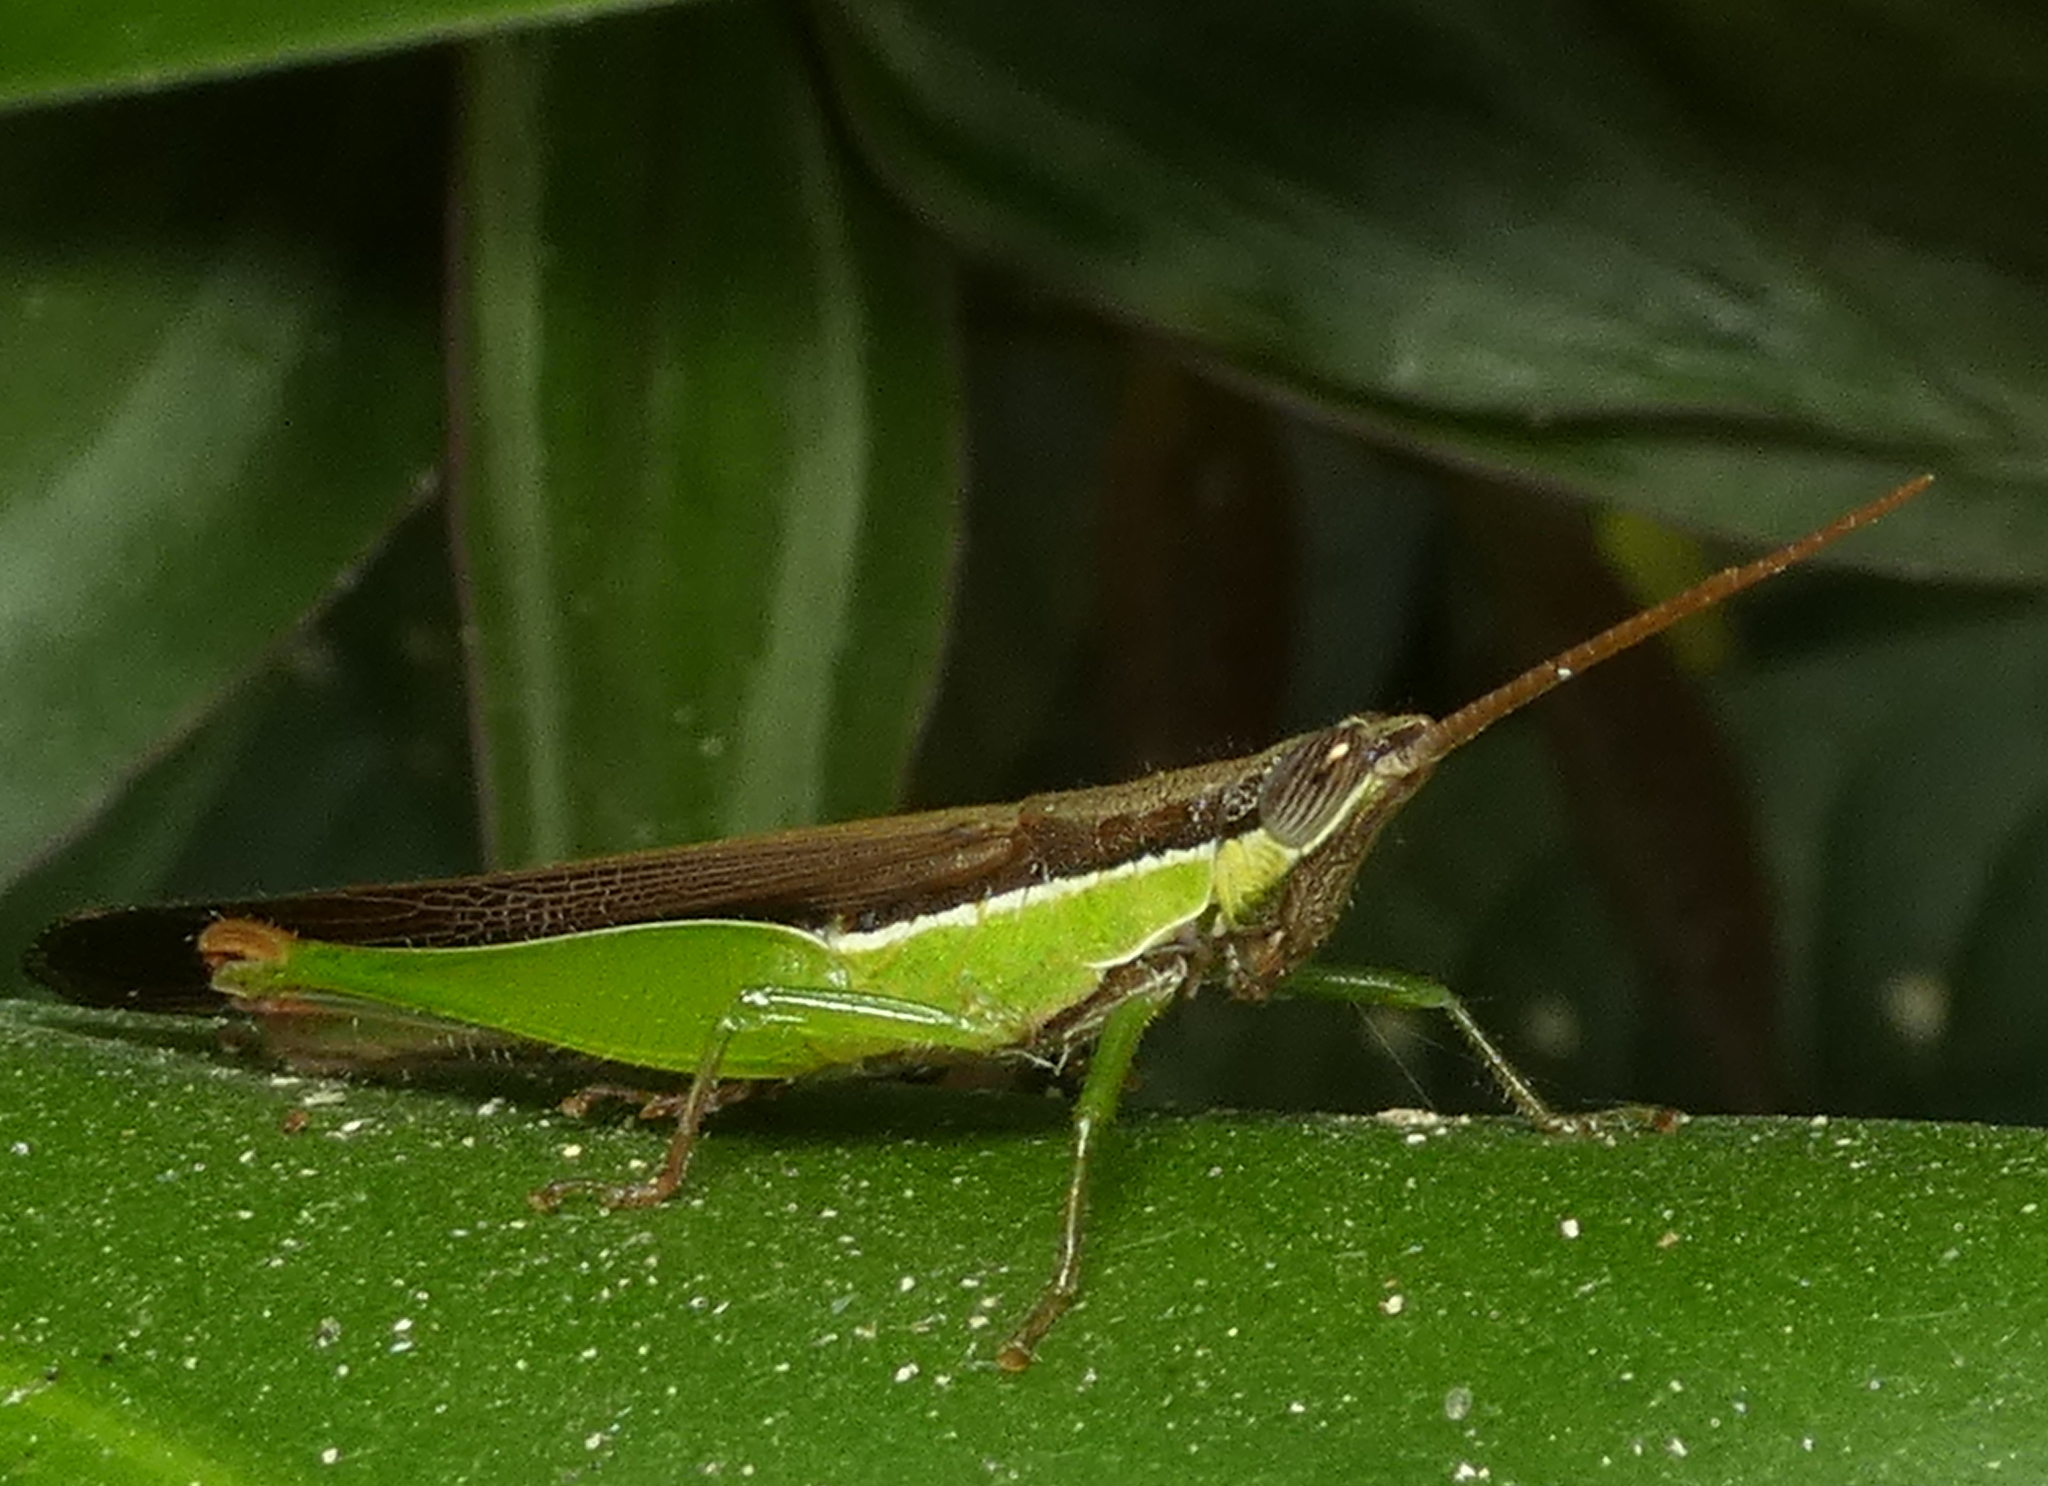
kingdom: Animalia
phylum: Arthropoda
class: Insecta
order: Orthoptera
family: Acrididae
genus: Stenopola
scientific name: Stenopola dorsalis
